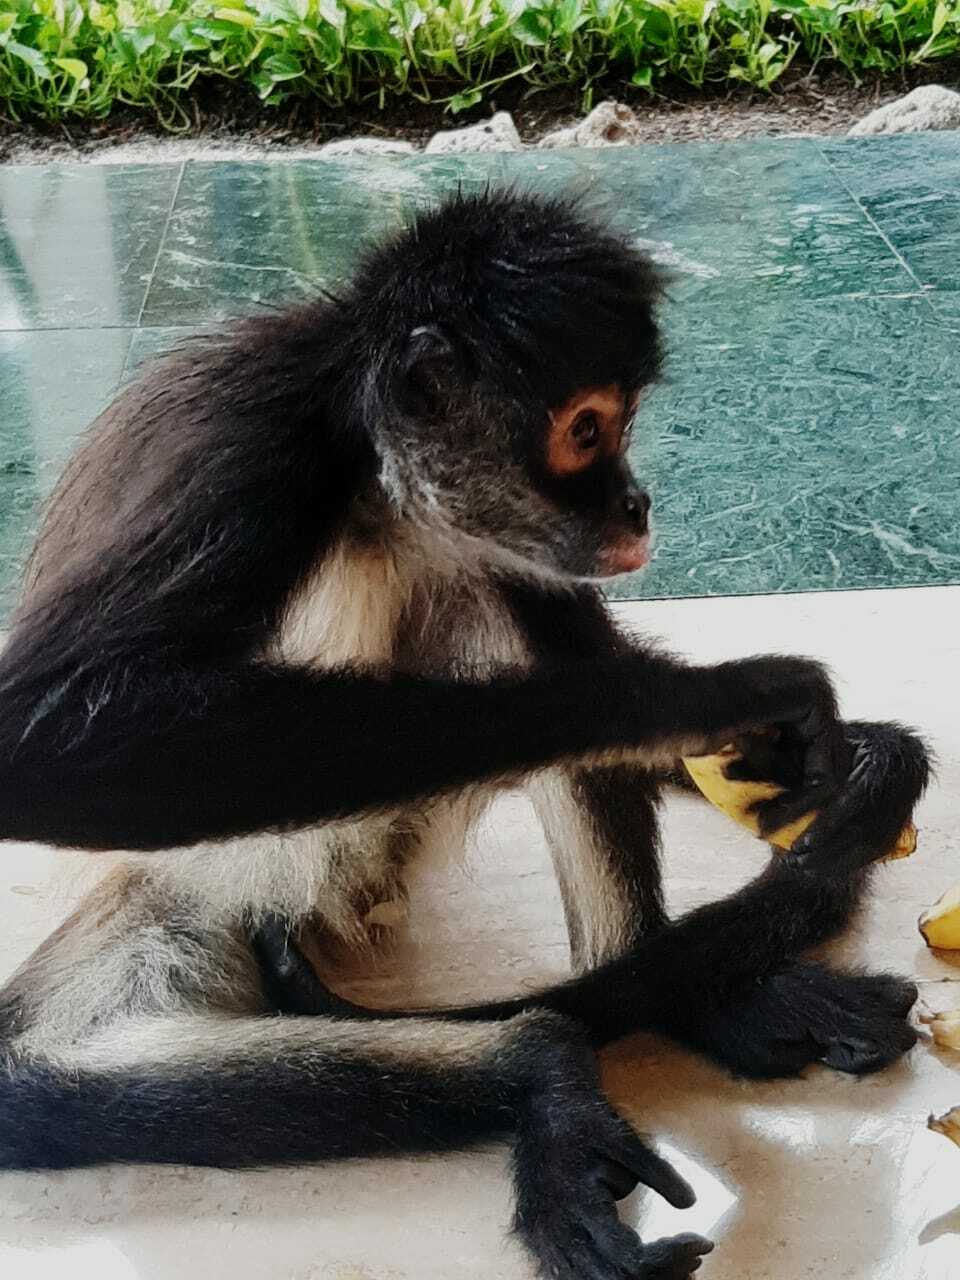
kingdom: Animalia
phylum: Chordata
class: Mammalia
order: Primates
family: Atelidae
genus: Ateles
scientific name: Ateles geoffroyi
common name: Black-handed spider monkey
